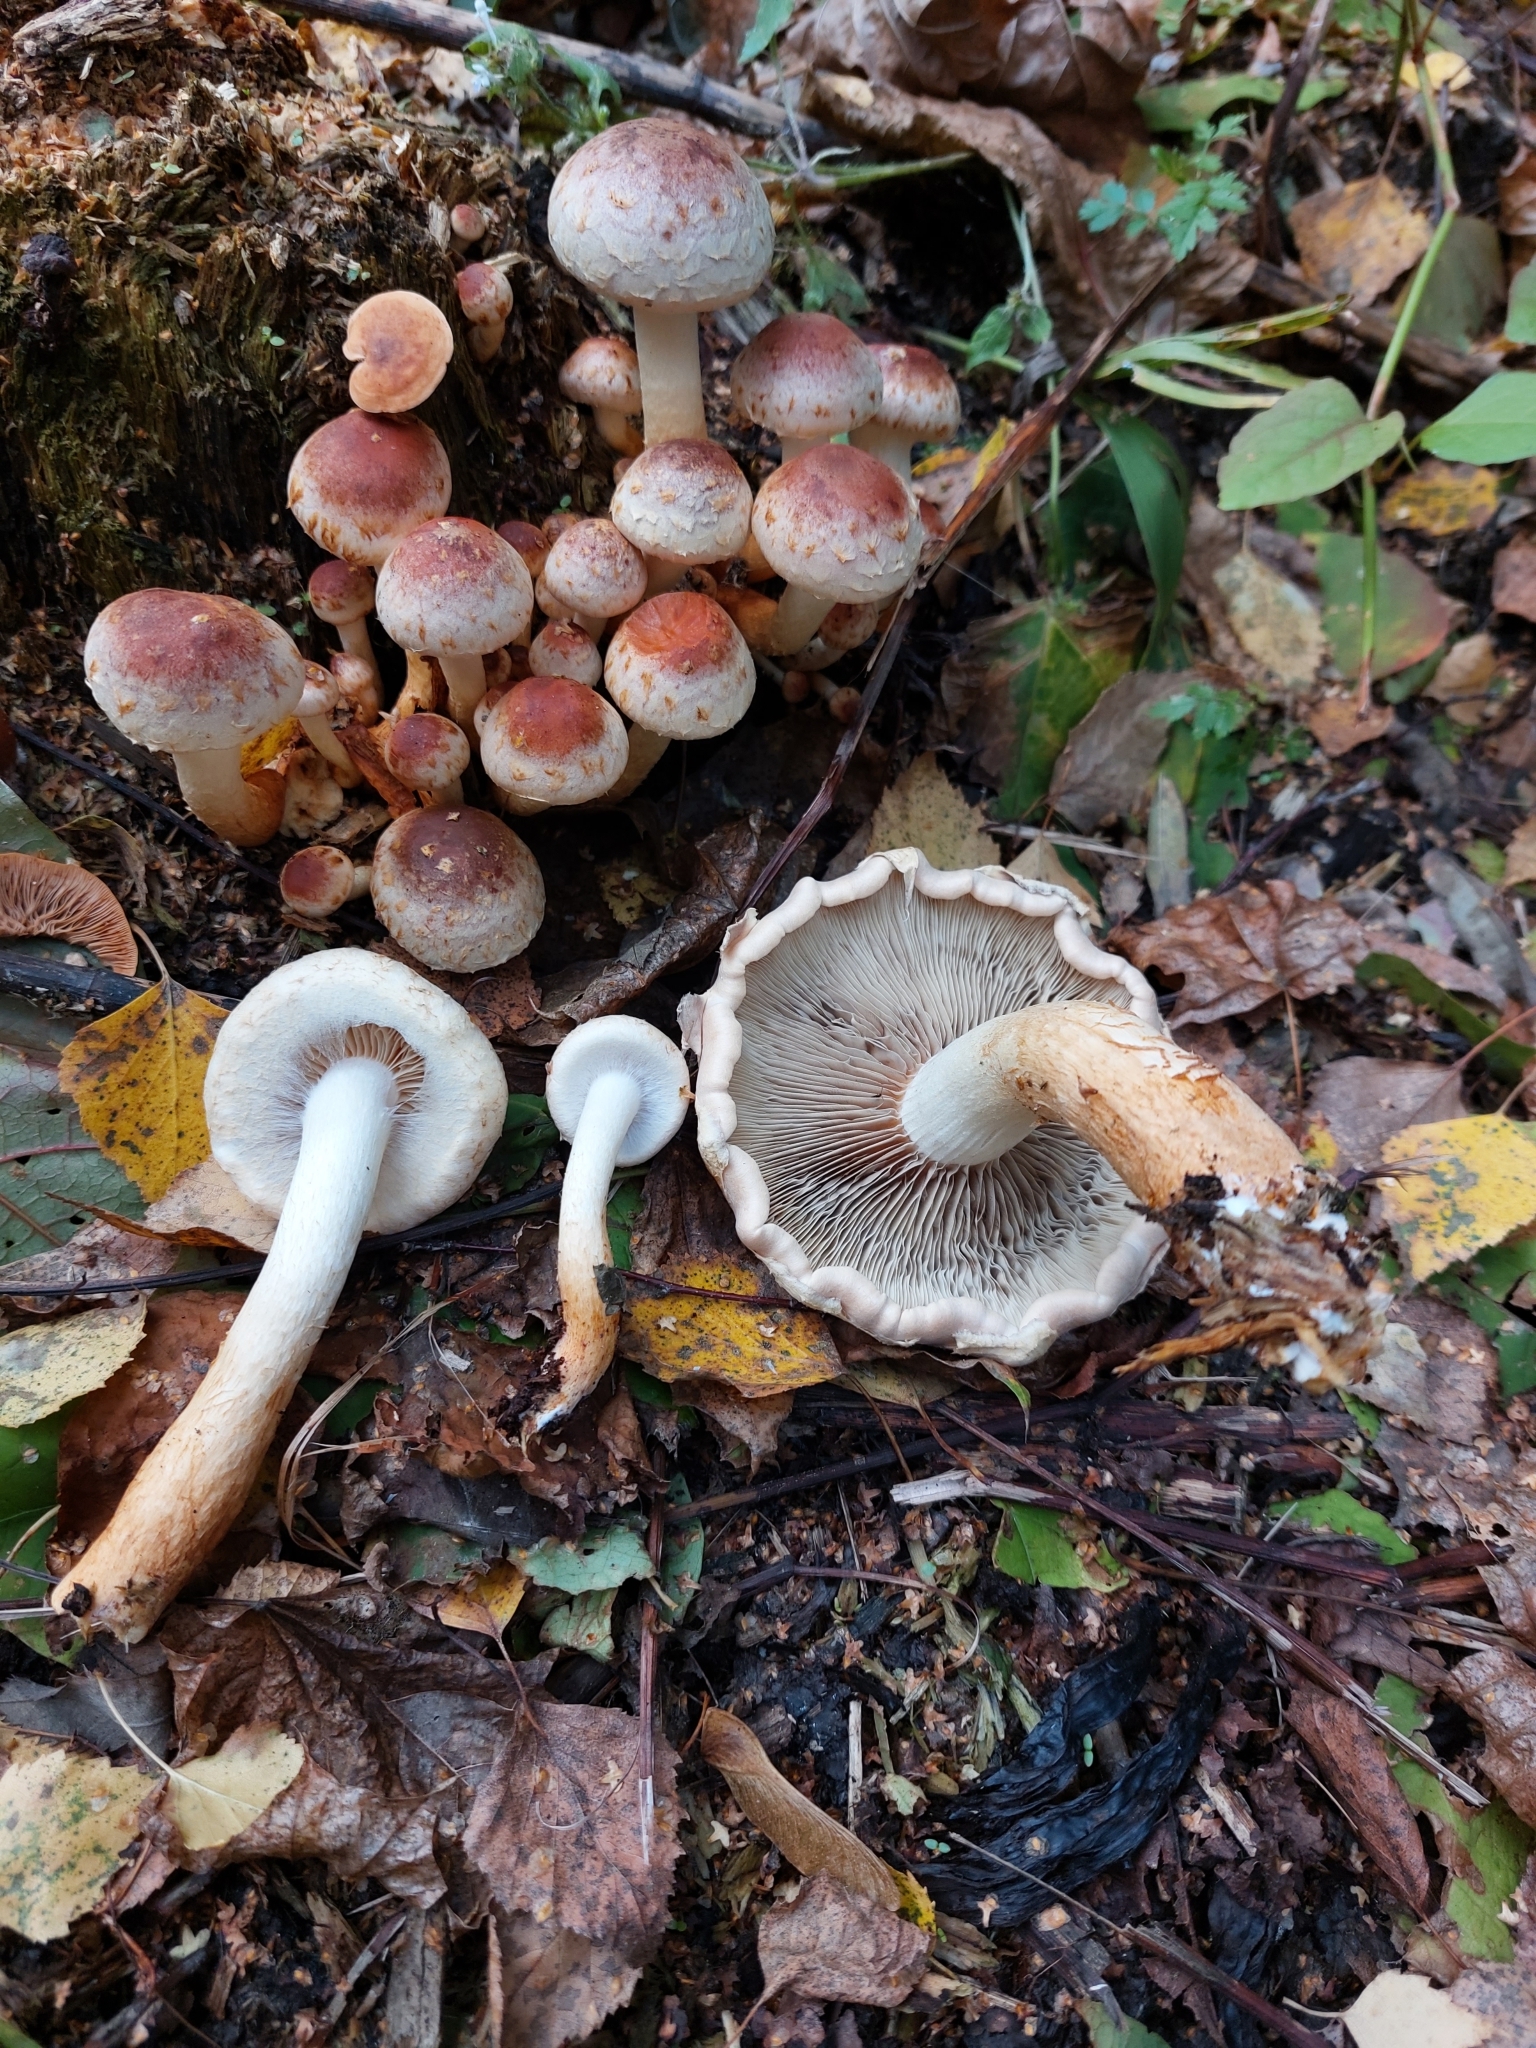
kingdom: Fungi
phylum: Basidiomycota
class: Agaricomycetes
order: Agaricales
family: Strophariaceae
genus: Hypholoma
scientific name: Hypholoma lateritium
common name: Brick caps
